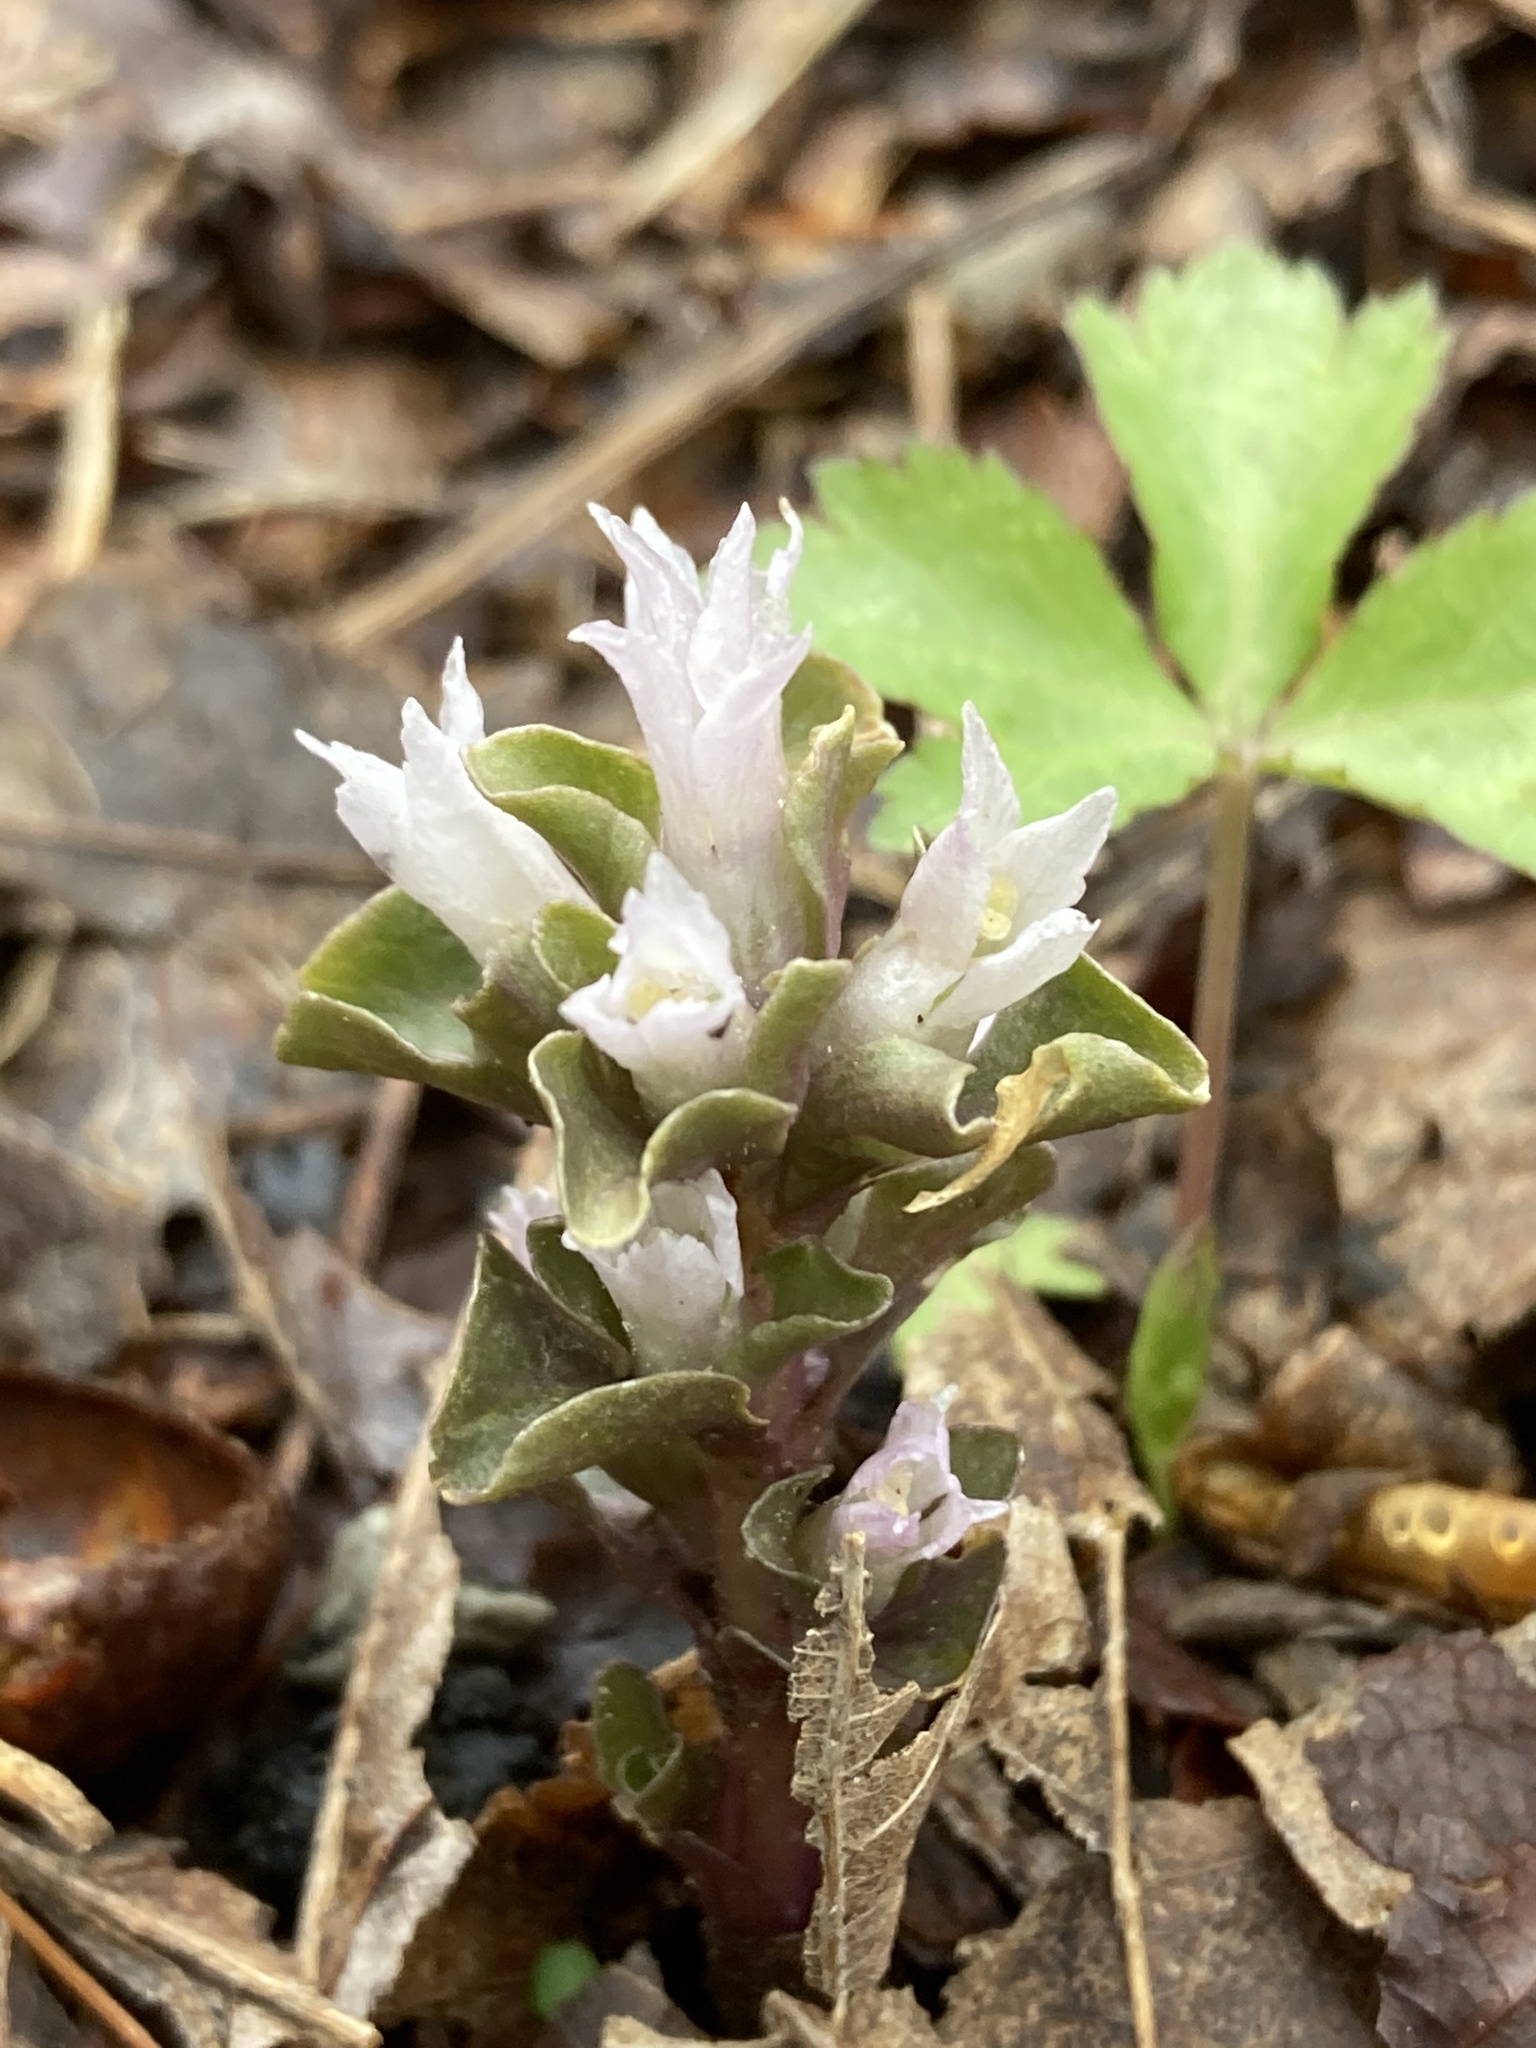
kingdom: Plantae
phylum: Tracheophyta
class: Magnoliopsida
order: Gentianales
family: Gentianaceae
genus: Obolaria
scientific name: Obolaria virginica
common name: Pennywort
